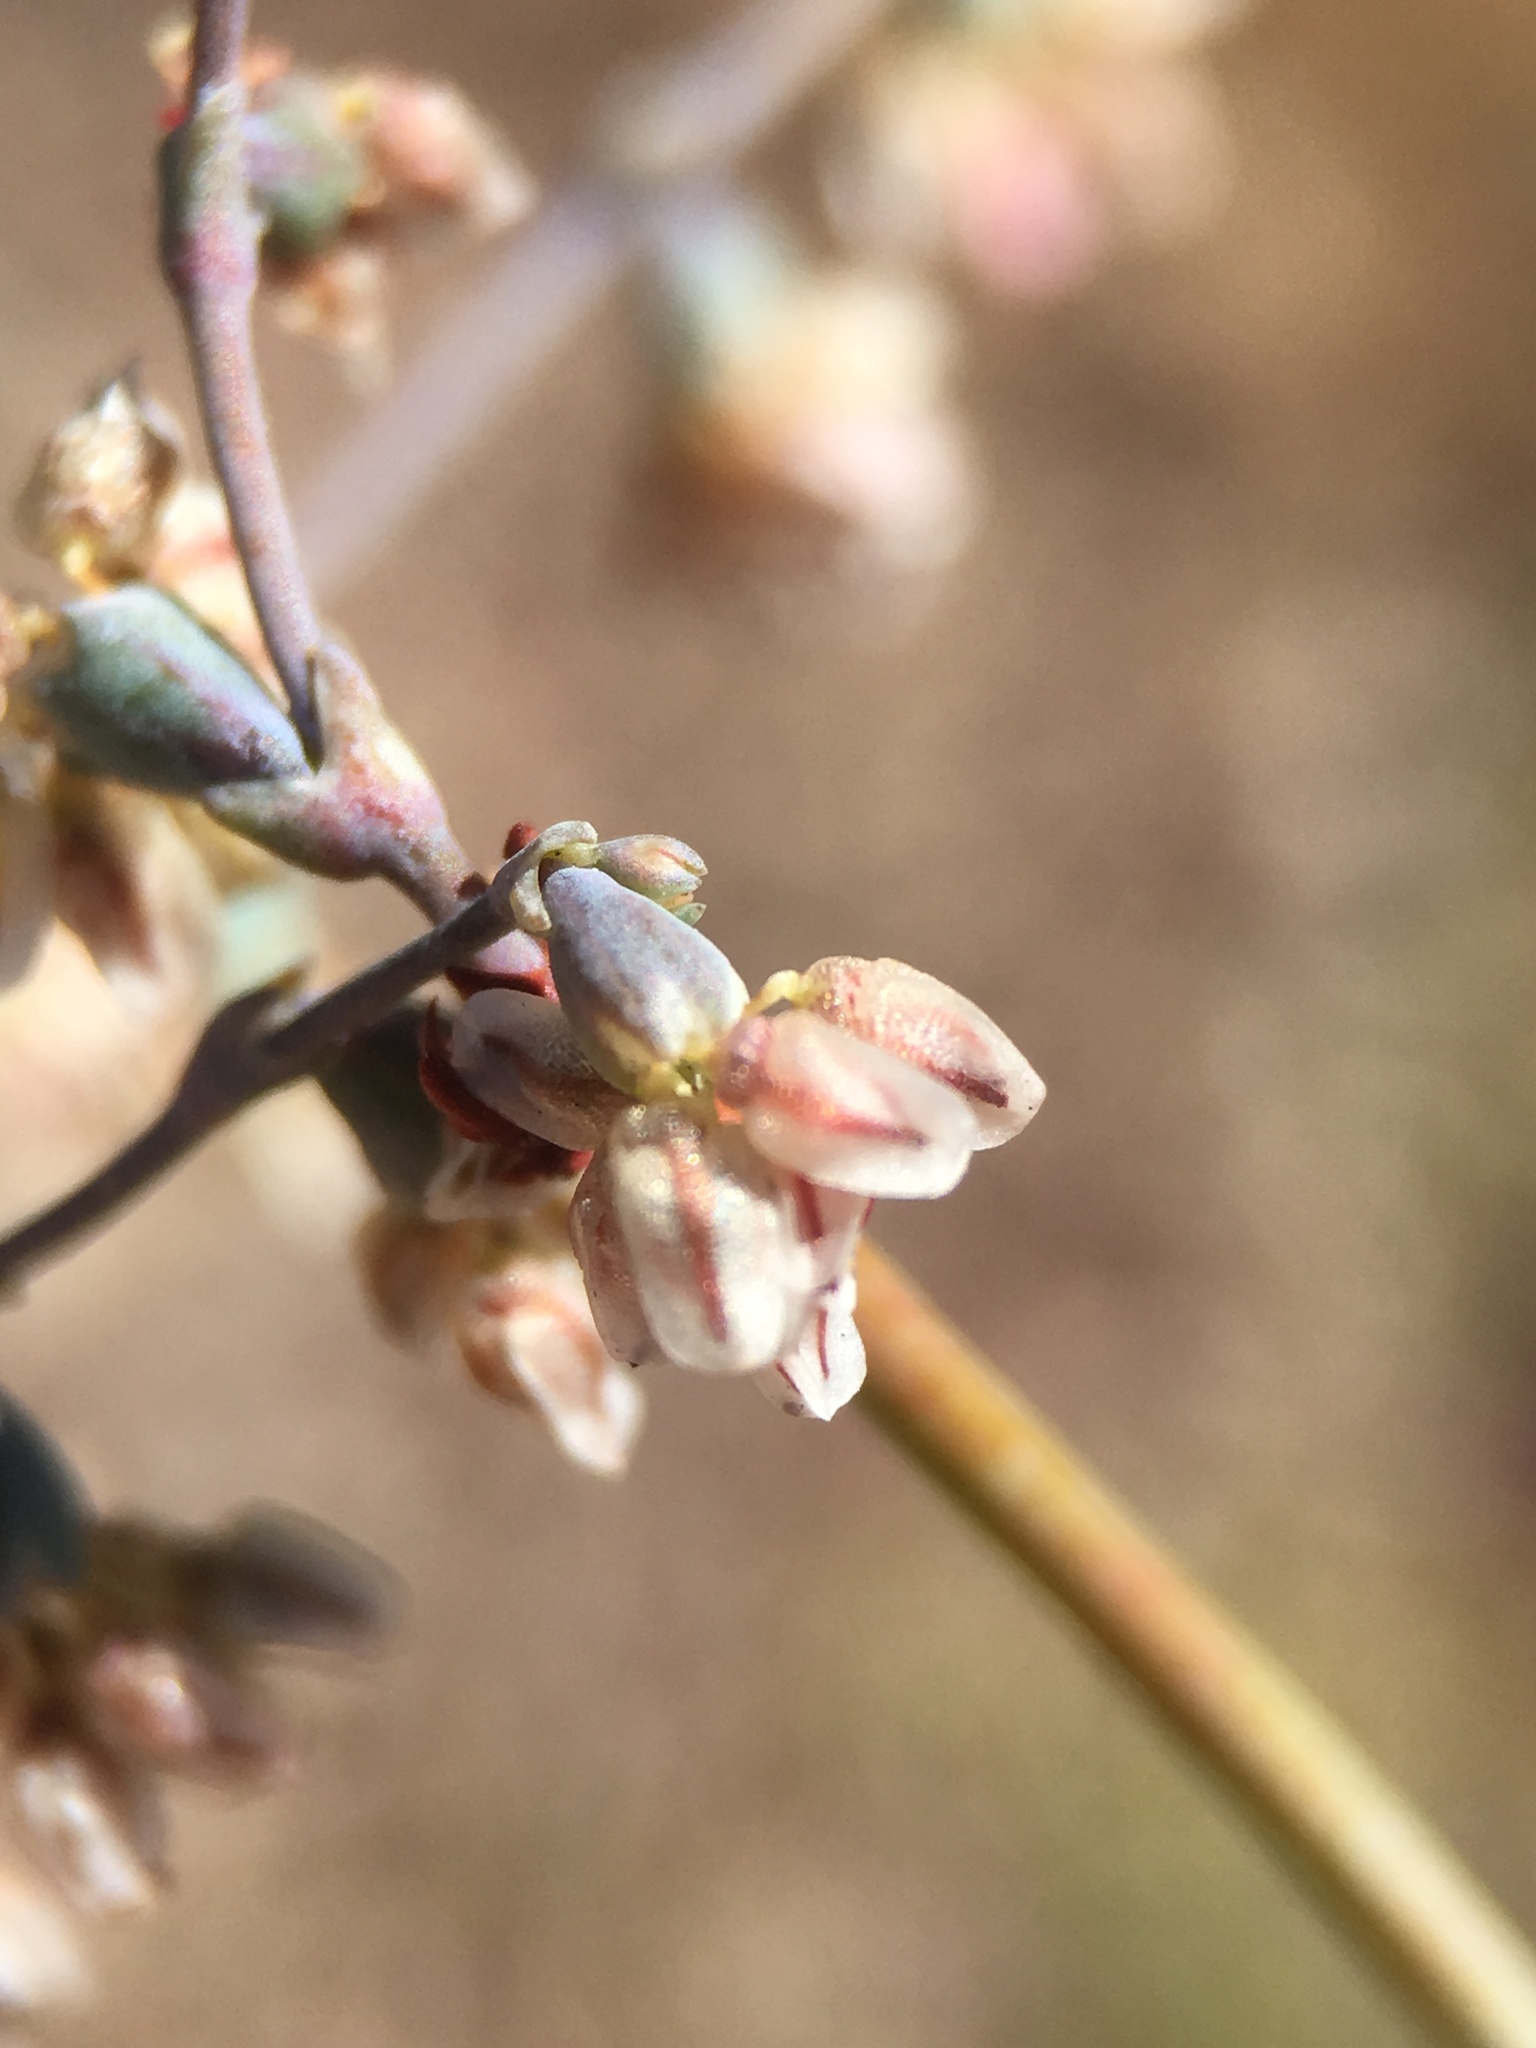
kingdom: Plantae
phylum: Tracheophyta
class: Magnoliopsida
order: Caryophyllales
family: Polygonaceae
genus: Eriogonum
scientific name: Eriogonum deflexum
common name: Skeleton-weed
